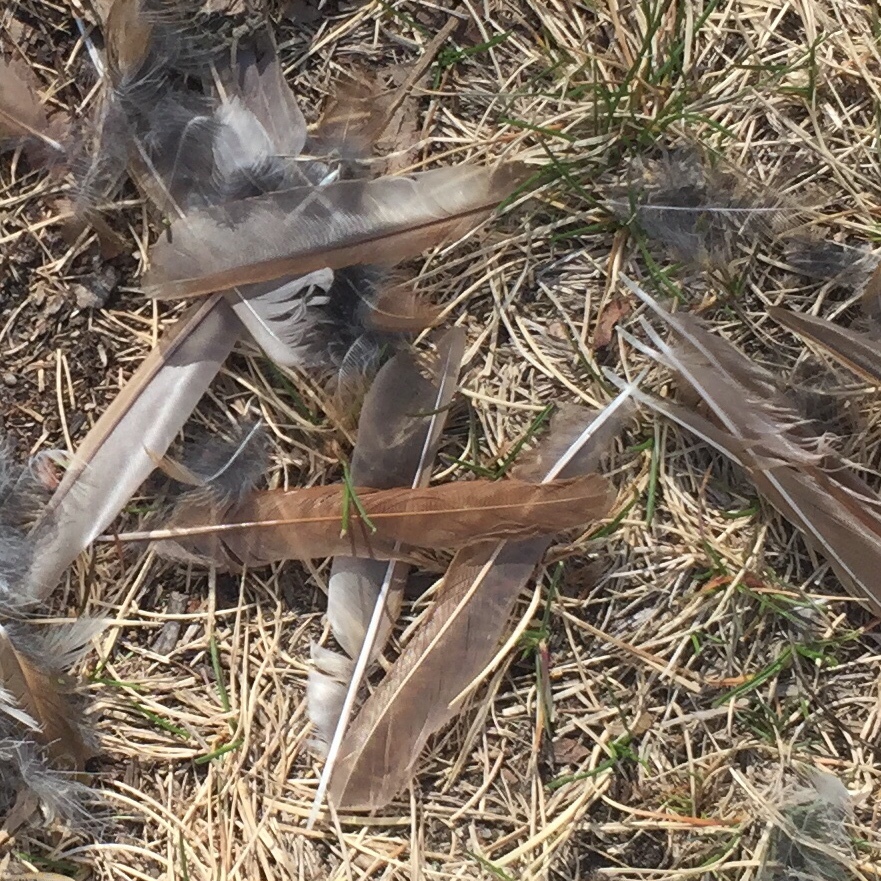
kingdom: Animalia
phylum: Chordata
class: Aves
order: Passeriformes
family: Turdidae
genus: Catharus
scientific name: Catharus guttatus
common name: Hermit thrush
